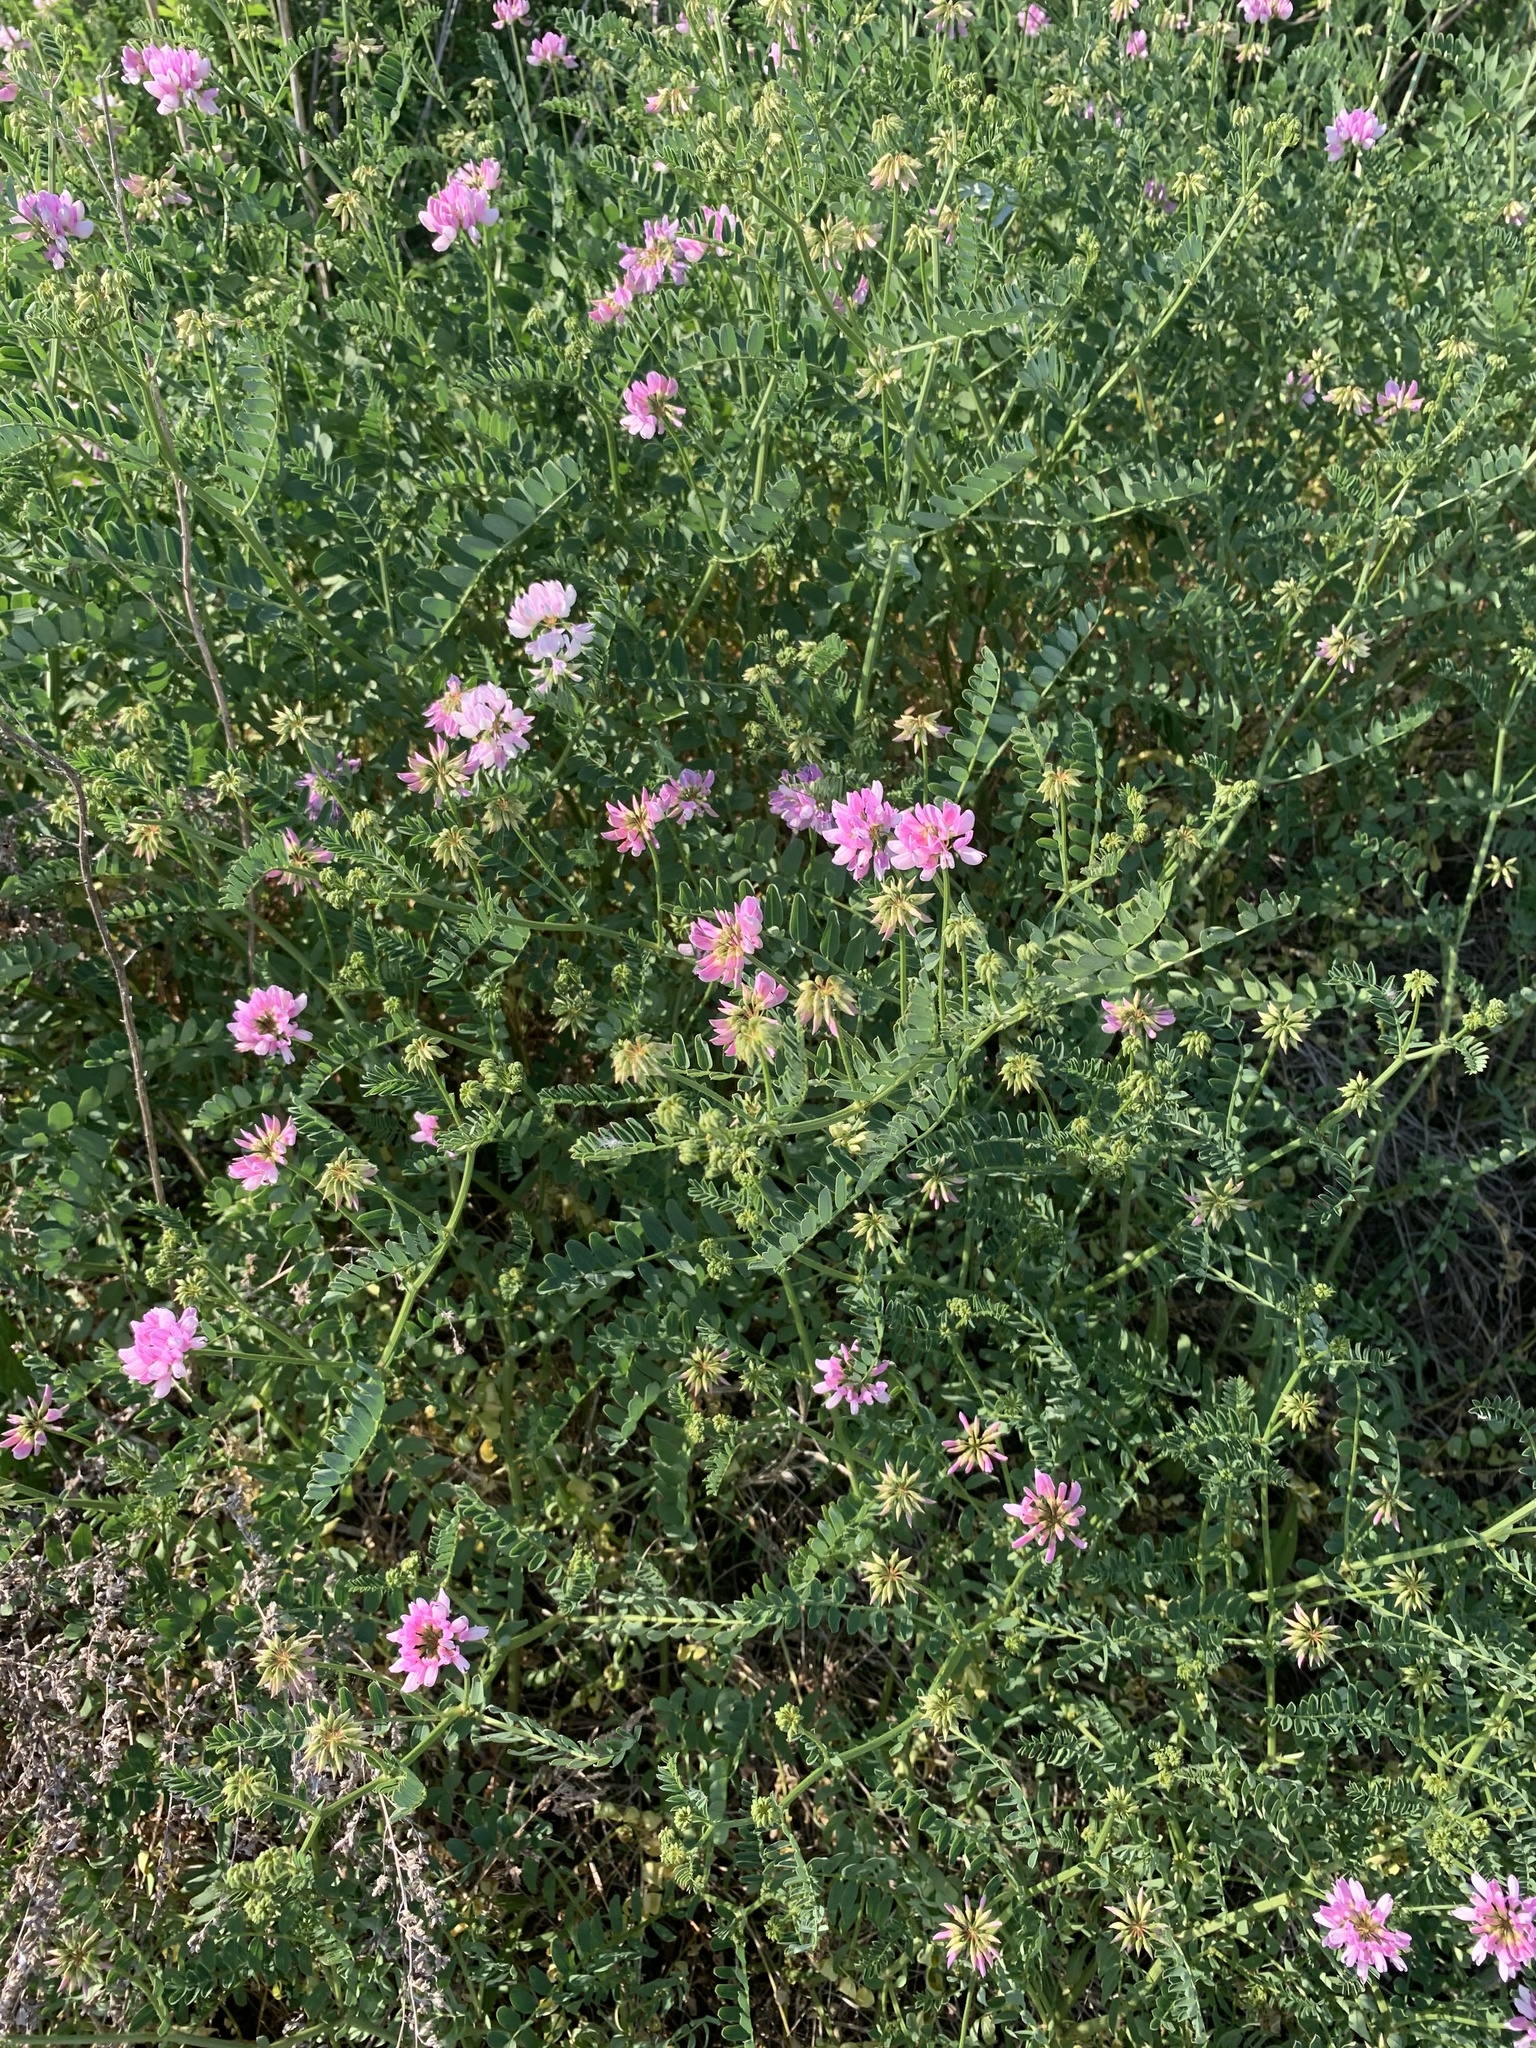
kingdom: Plantae
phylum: Tracheophyta
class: Magnoliopsida
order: Fabales
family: Fabaceae
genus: Coronilla
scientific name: Coronilla varia
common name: Crownvetch
